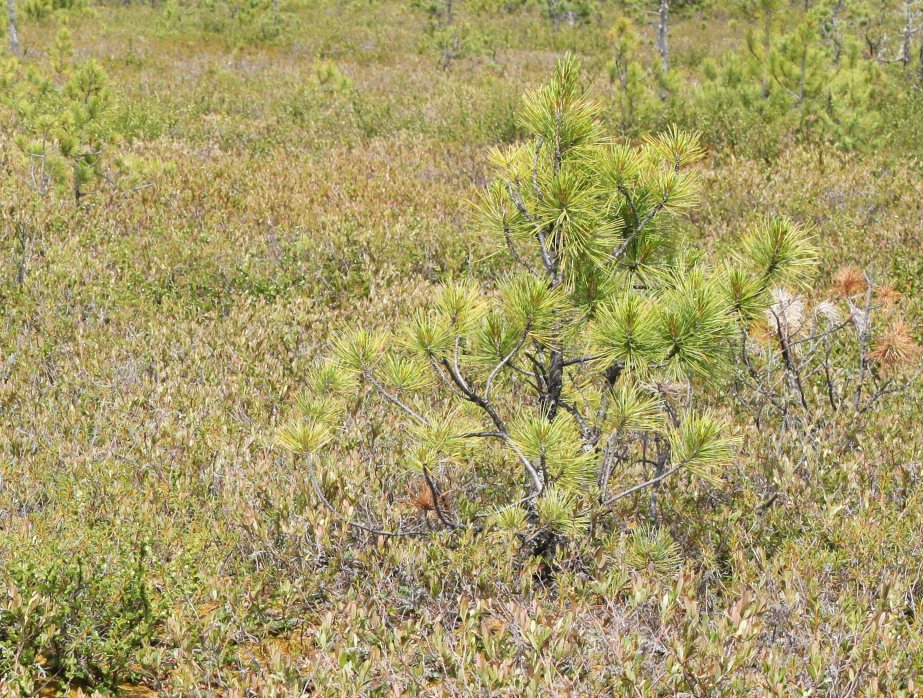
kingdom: Plantae
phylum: Tracheophyta
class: Pinopsida
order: Pinales
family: Pinaceae
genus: Pinus
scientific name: Pinus sibirica
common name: Siberian pine
